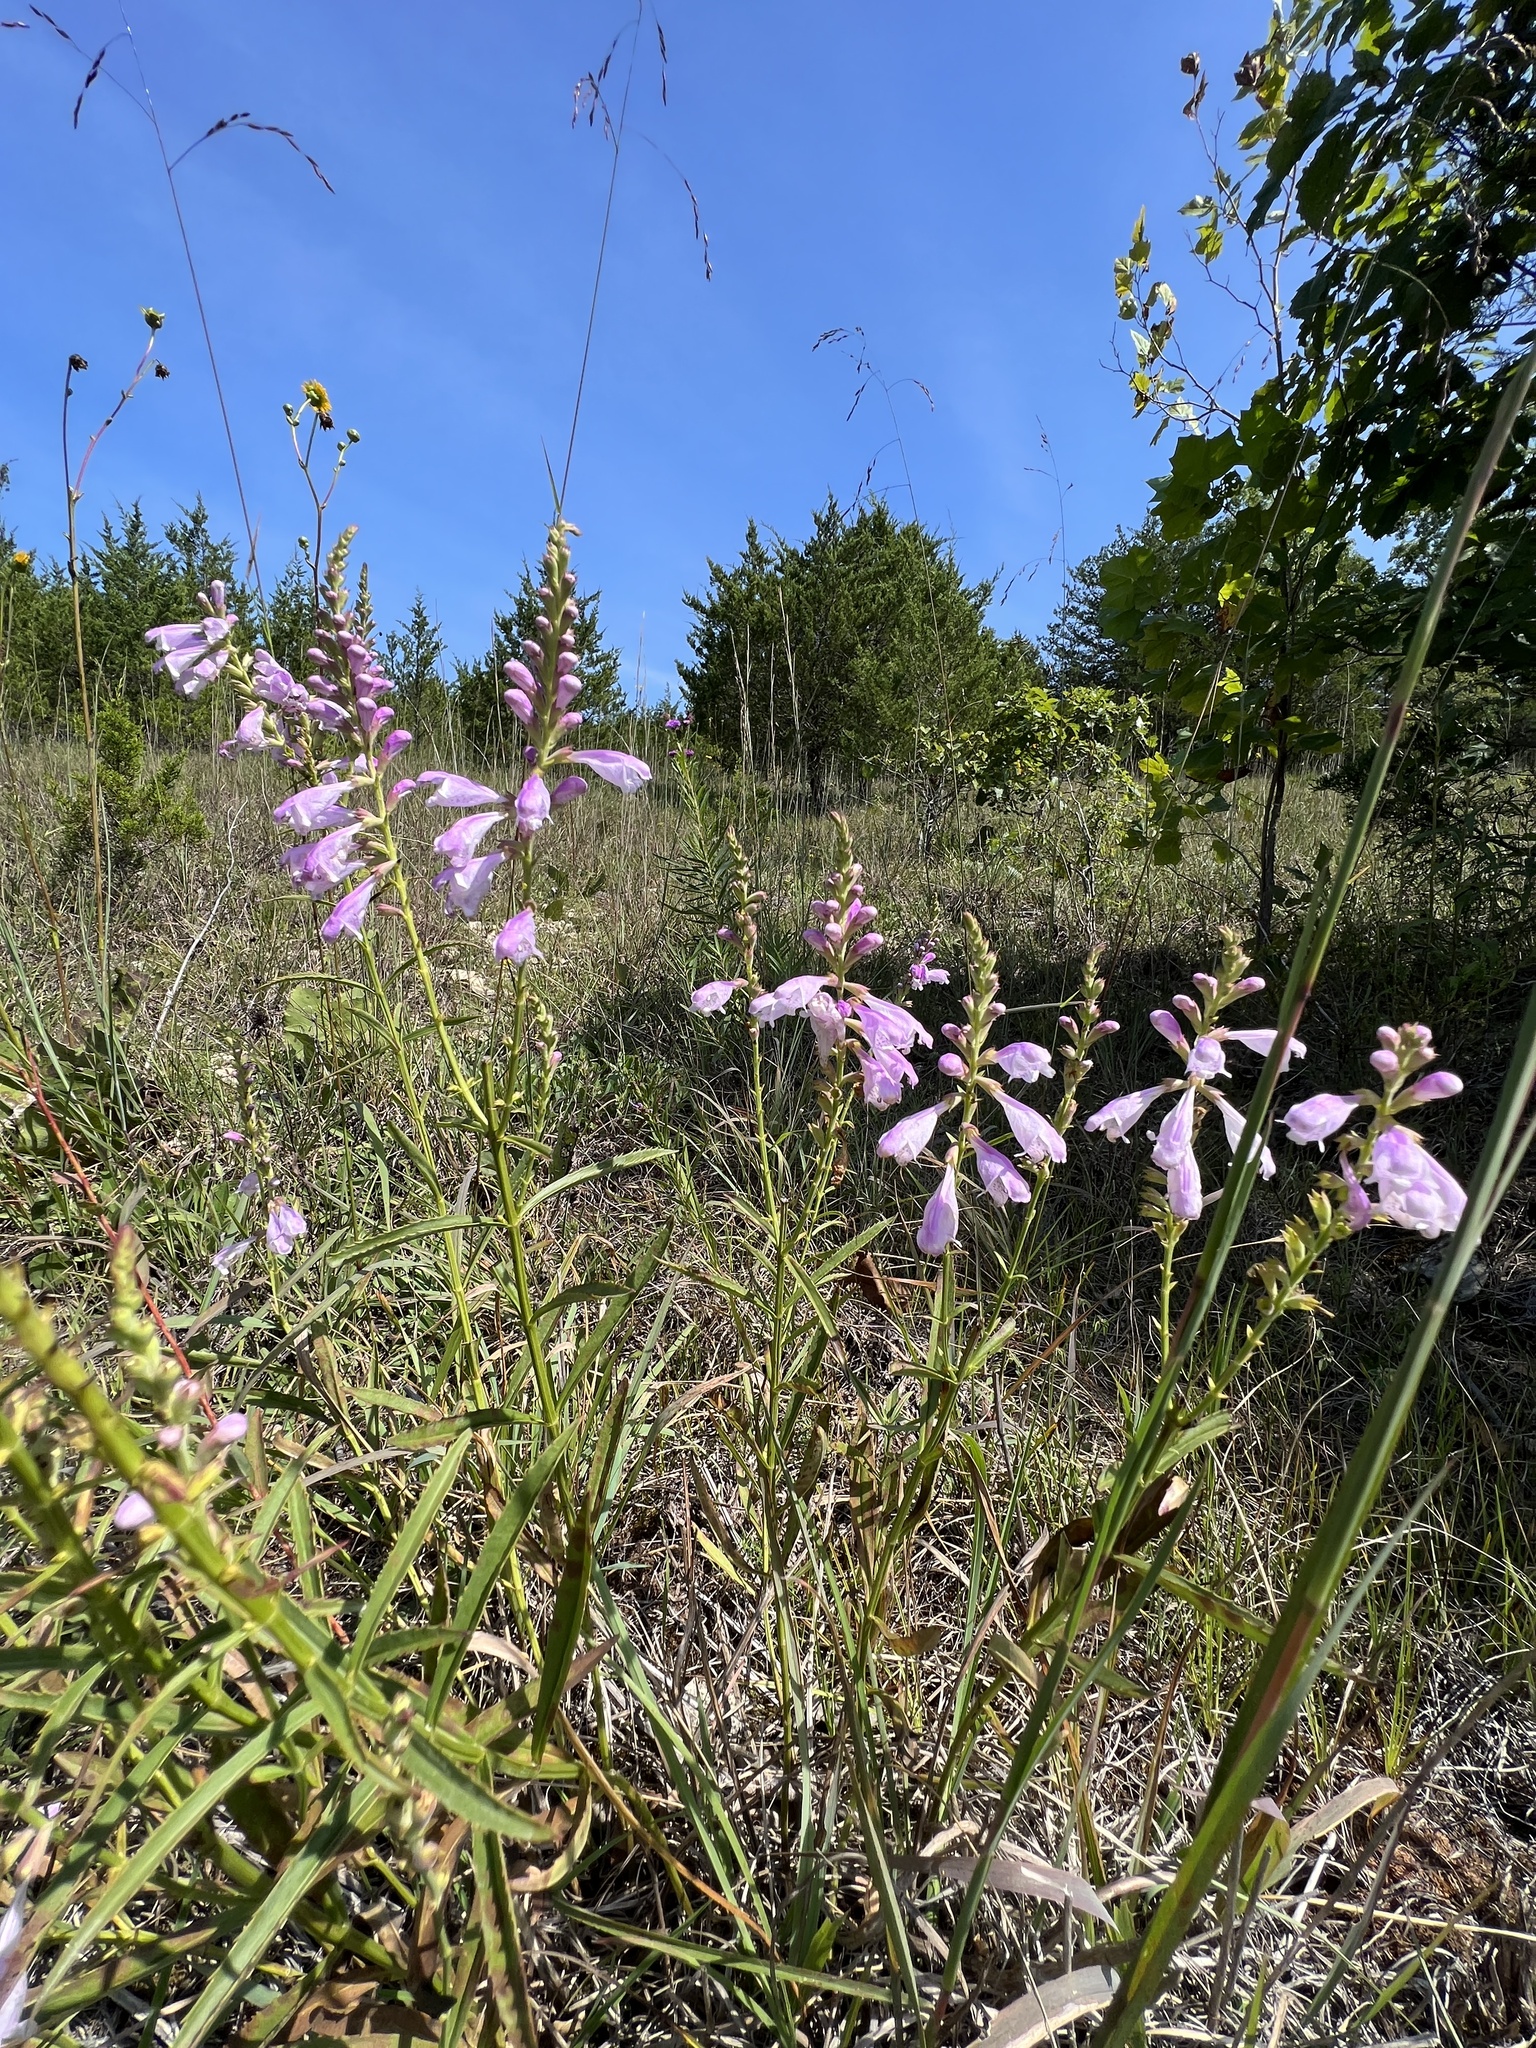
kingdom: Plantae
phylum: Tracheophyta
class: Magnoliopsida
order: Lamiales
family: Lamiaceae
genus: Physostegia
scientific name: Physostegia virginiana
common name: Obedient-plant
